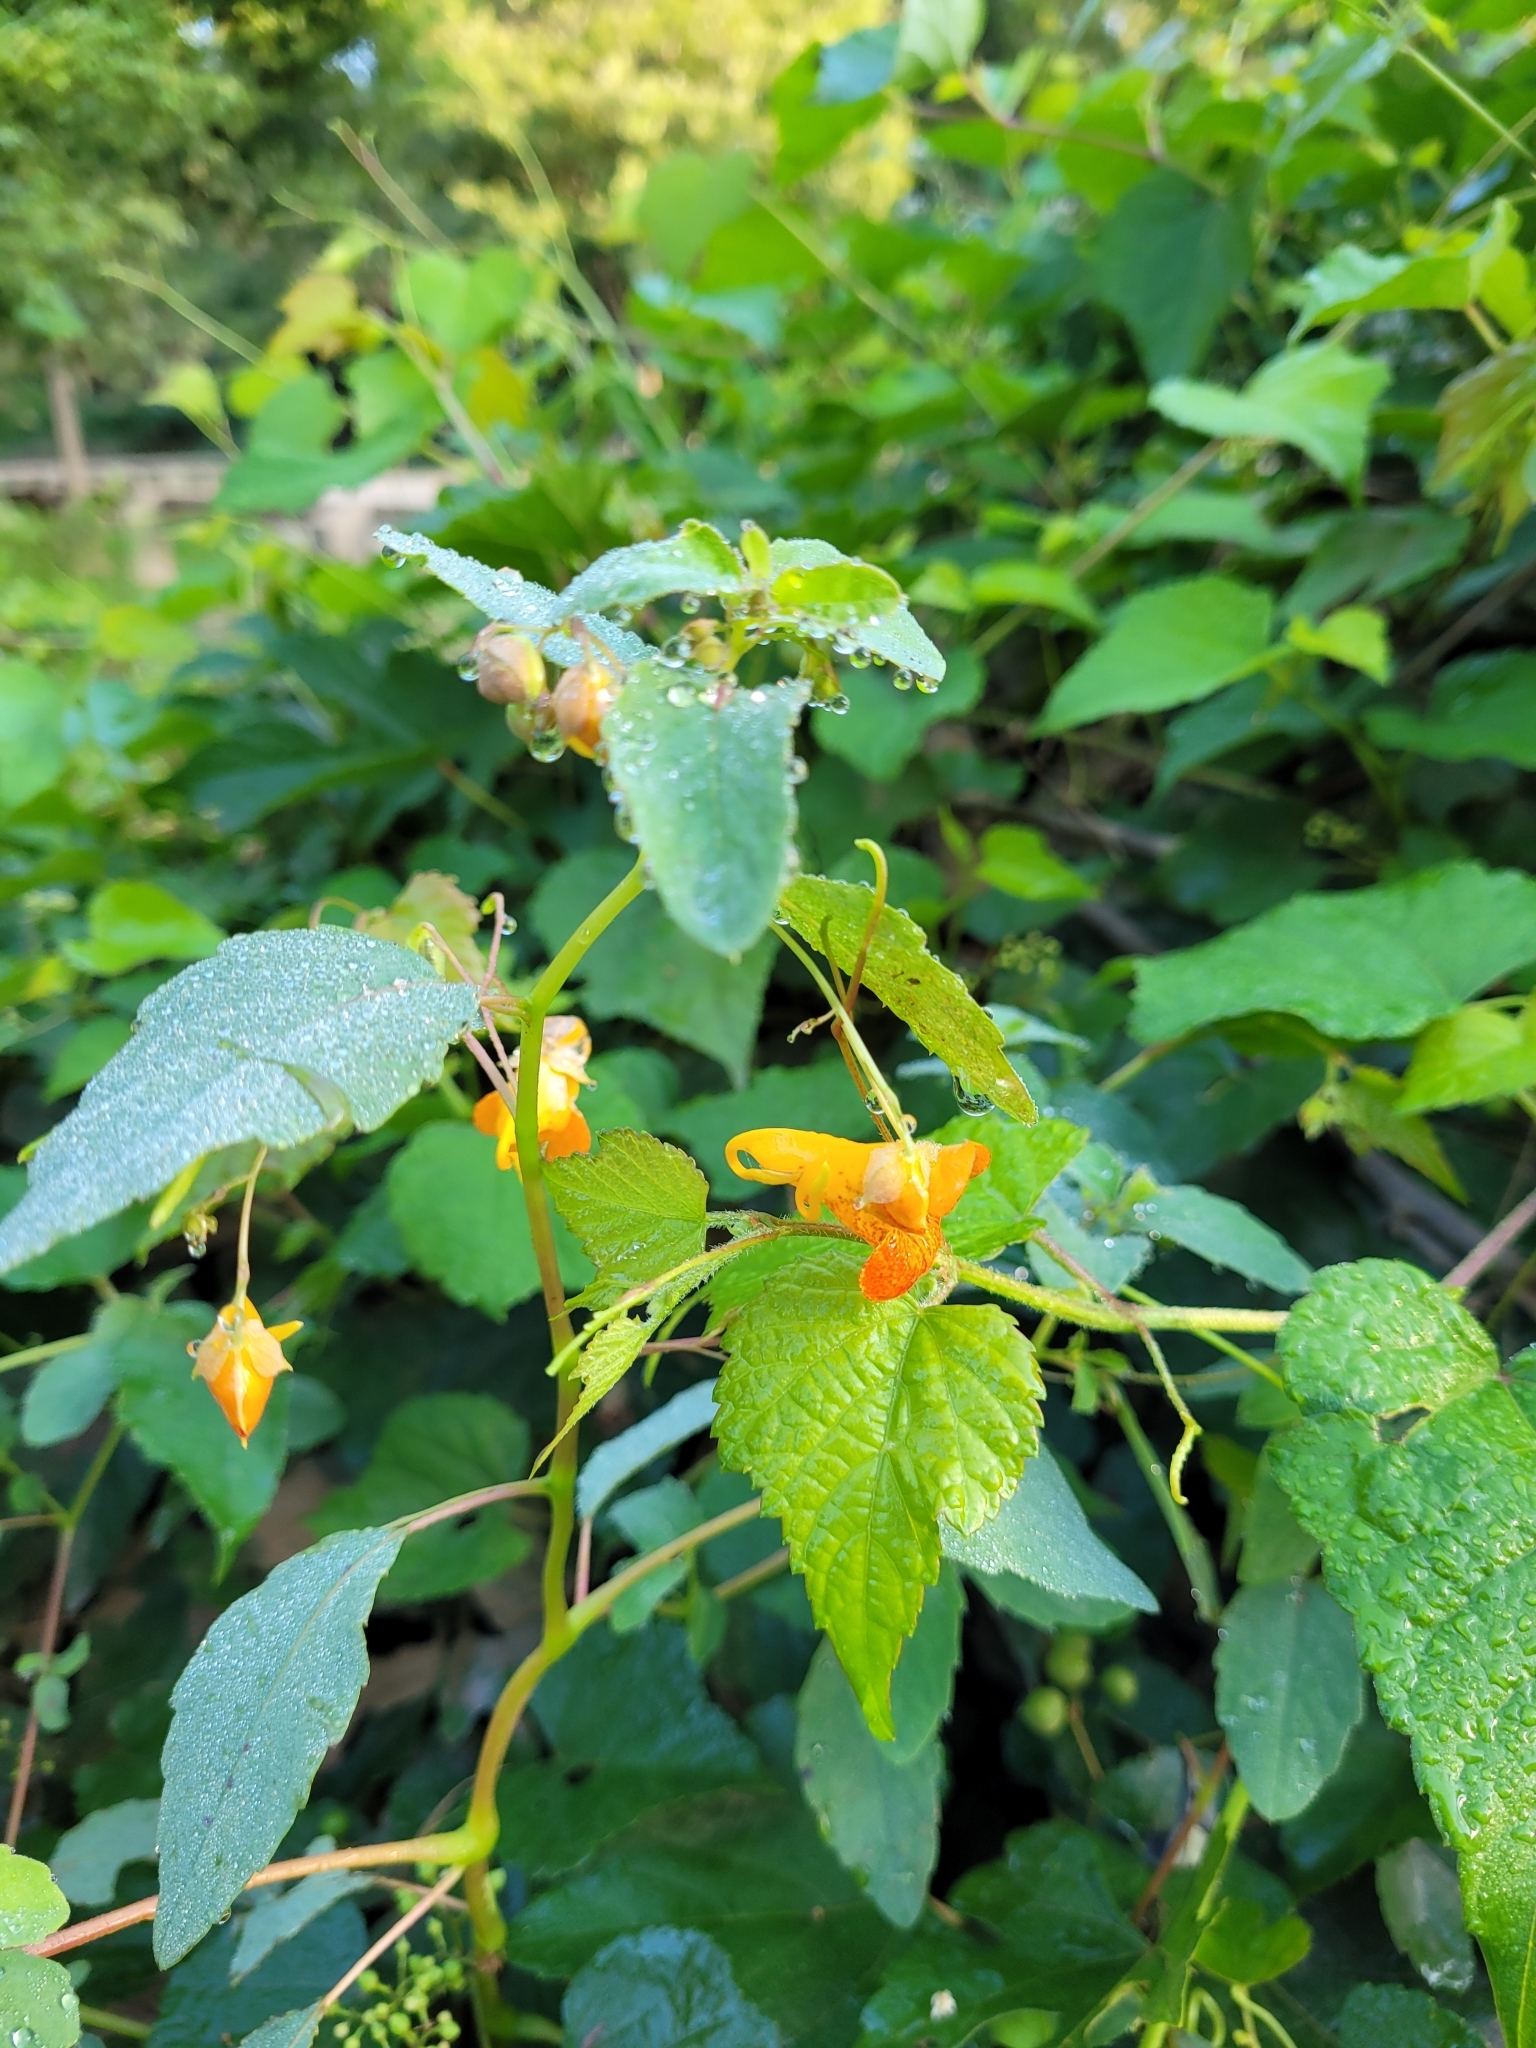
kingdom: Plantae
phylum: Tracheophyta
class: Magnoliopsida
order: Ericales
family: Balsaminaceae
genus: Impatiens
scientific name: Impatiens capensis
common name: Orange balsam
